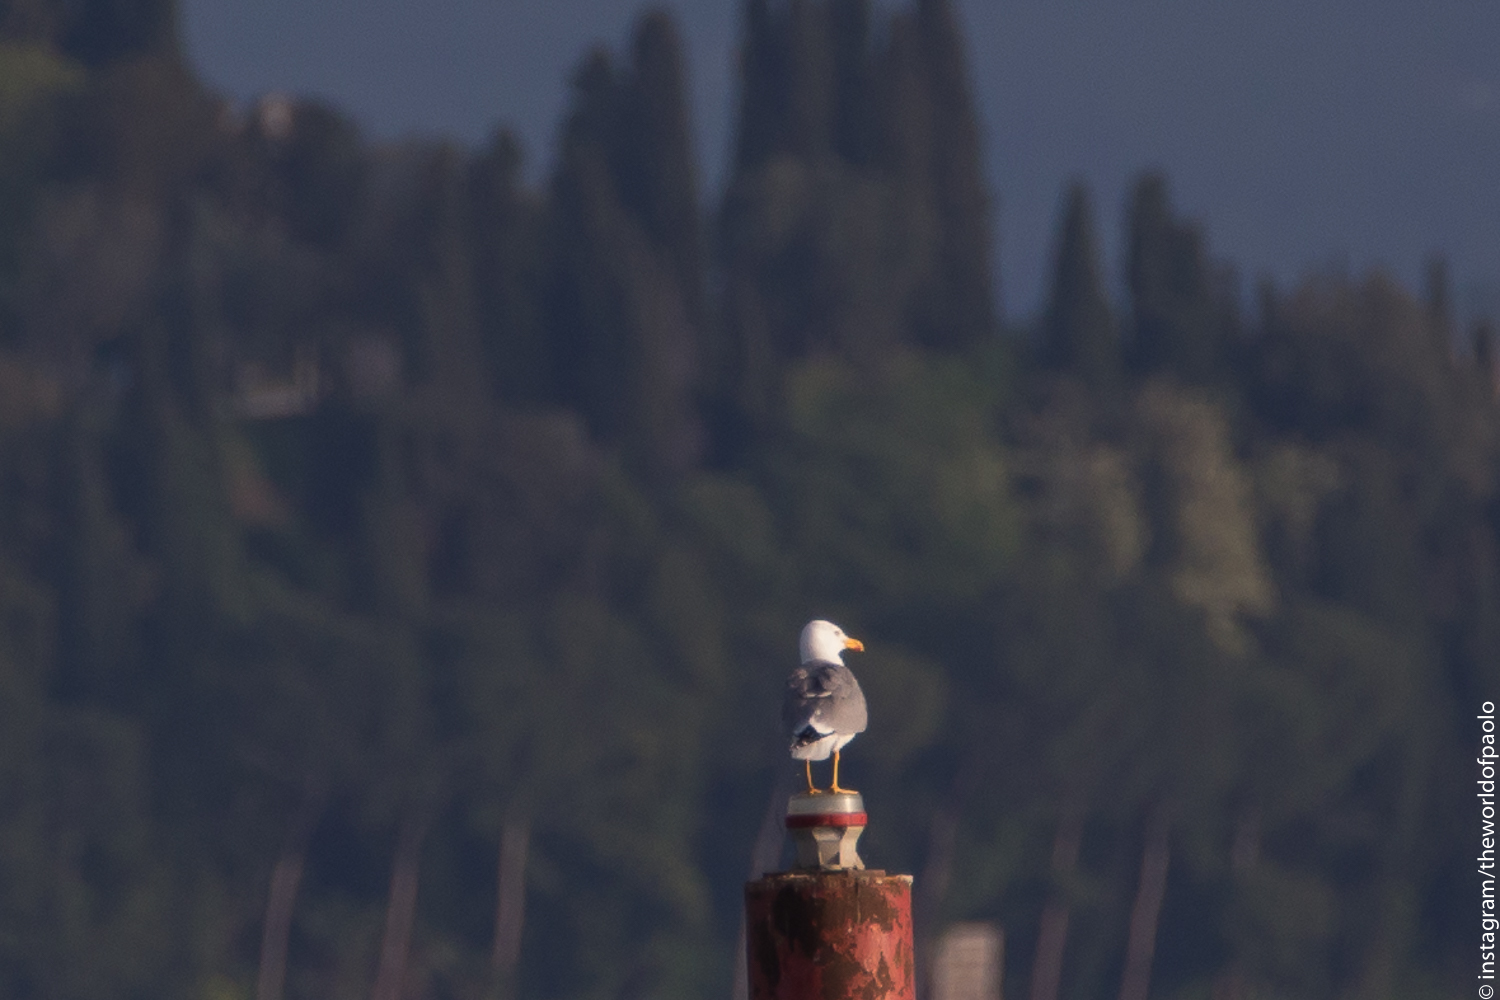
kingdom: Animalia
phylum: Chordata
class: Aves
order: Charadriiformes
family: Laridae
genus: Larus
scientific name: Larus michahellis
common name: Yellow-legged gull
